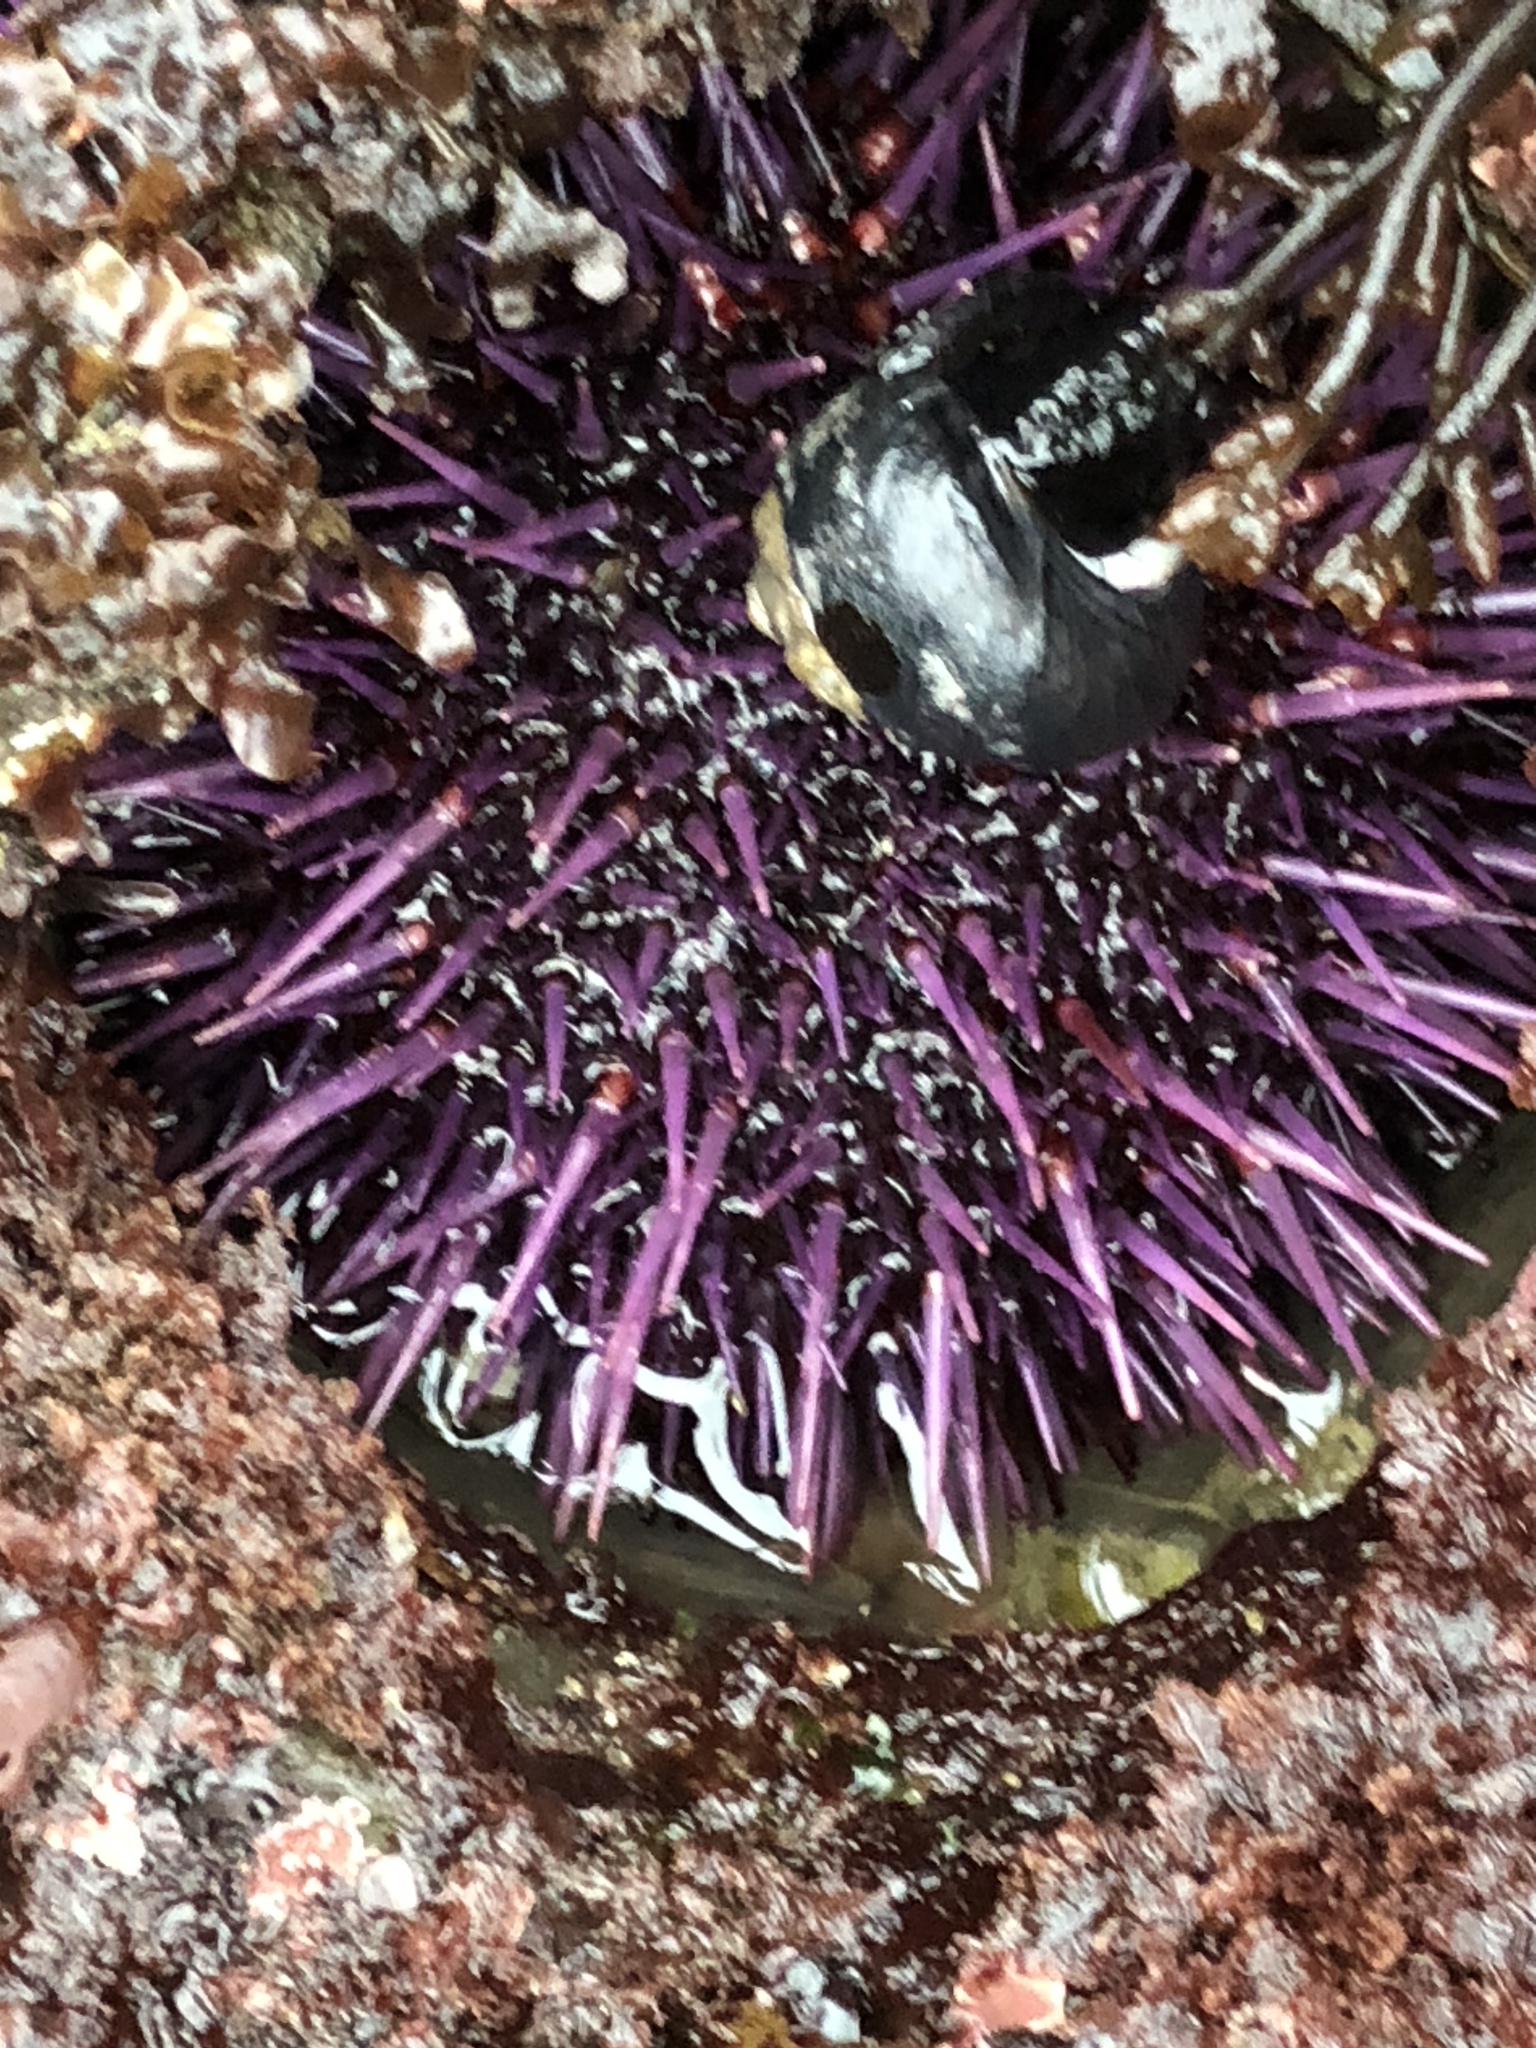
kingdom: Animalia
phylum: Echinodermata
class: Echinoidea
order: Camarodonta
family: Strongylocentrotidae
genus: Strongylocentrotus
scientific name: Strongylocentrotus purpuratus
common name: Purple sea urchin
